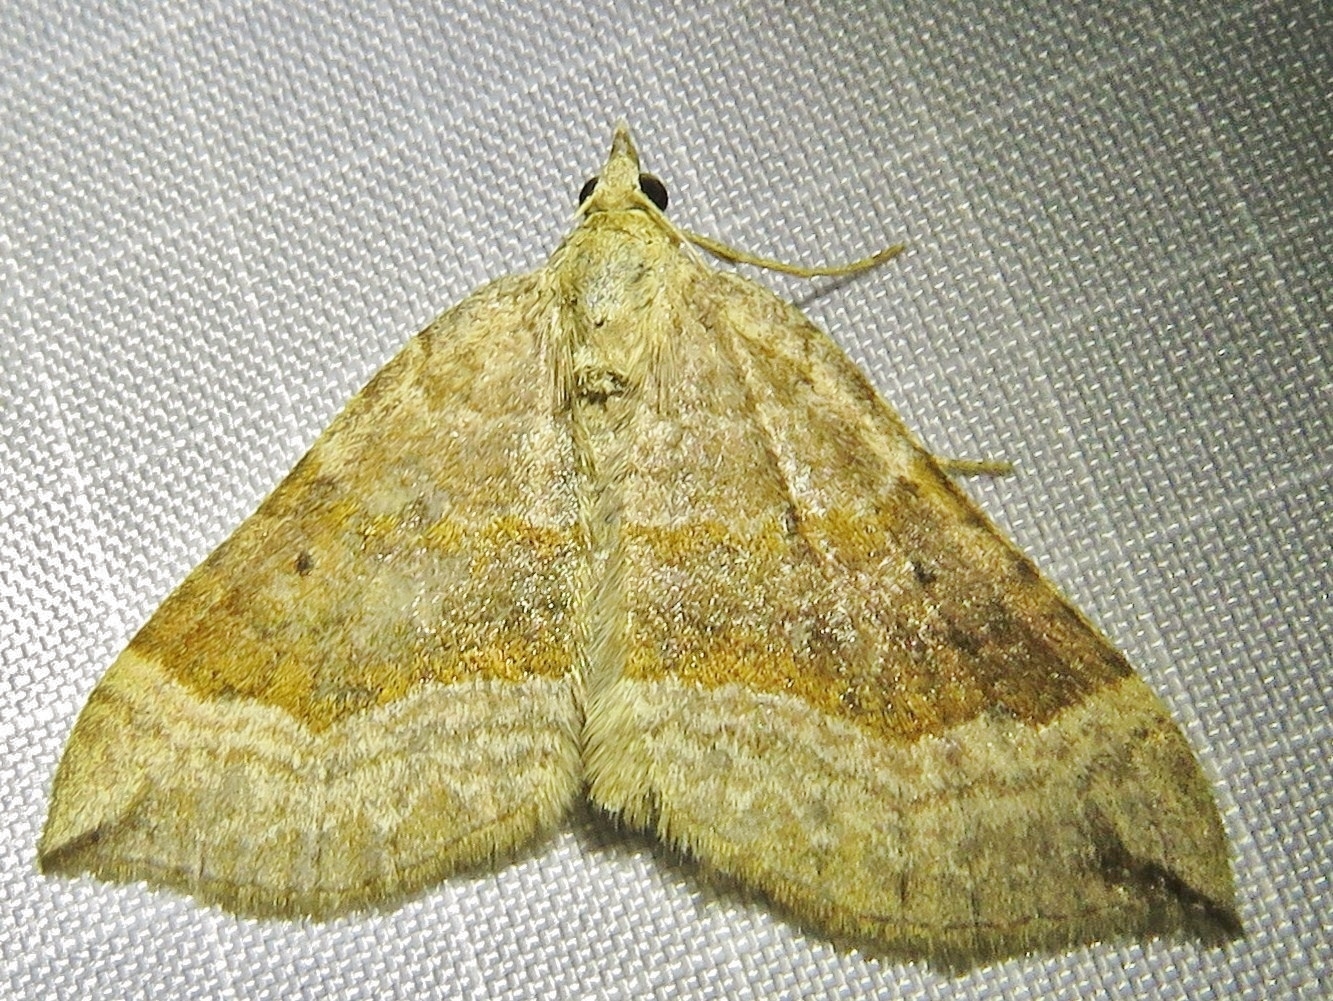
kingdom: Animalia
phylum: Arthropoda
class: Insecta
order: Lepidoptera
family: Geometridae
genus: Scotopteryx
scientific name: Scotopteryx chenopodiata
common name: Shaded broad-bar
